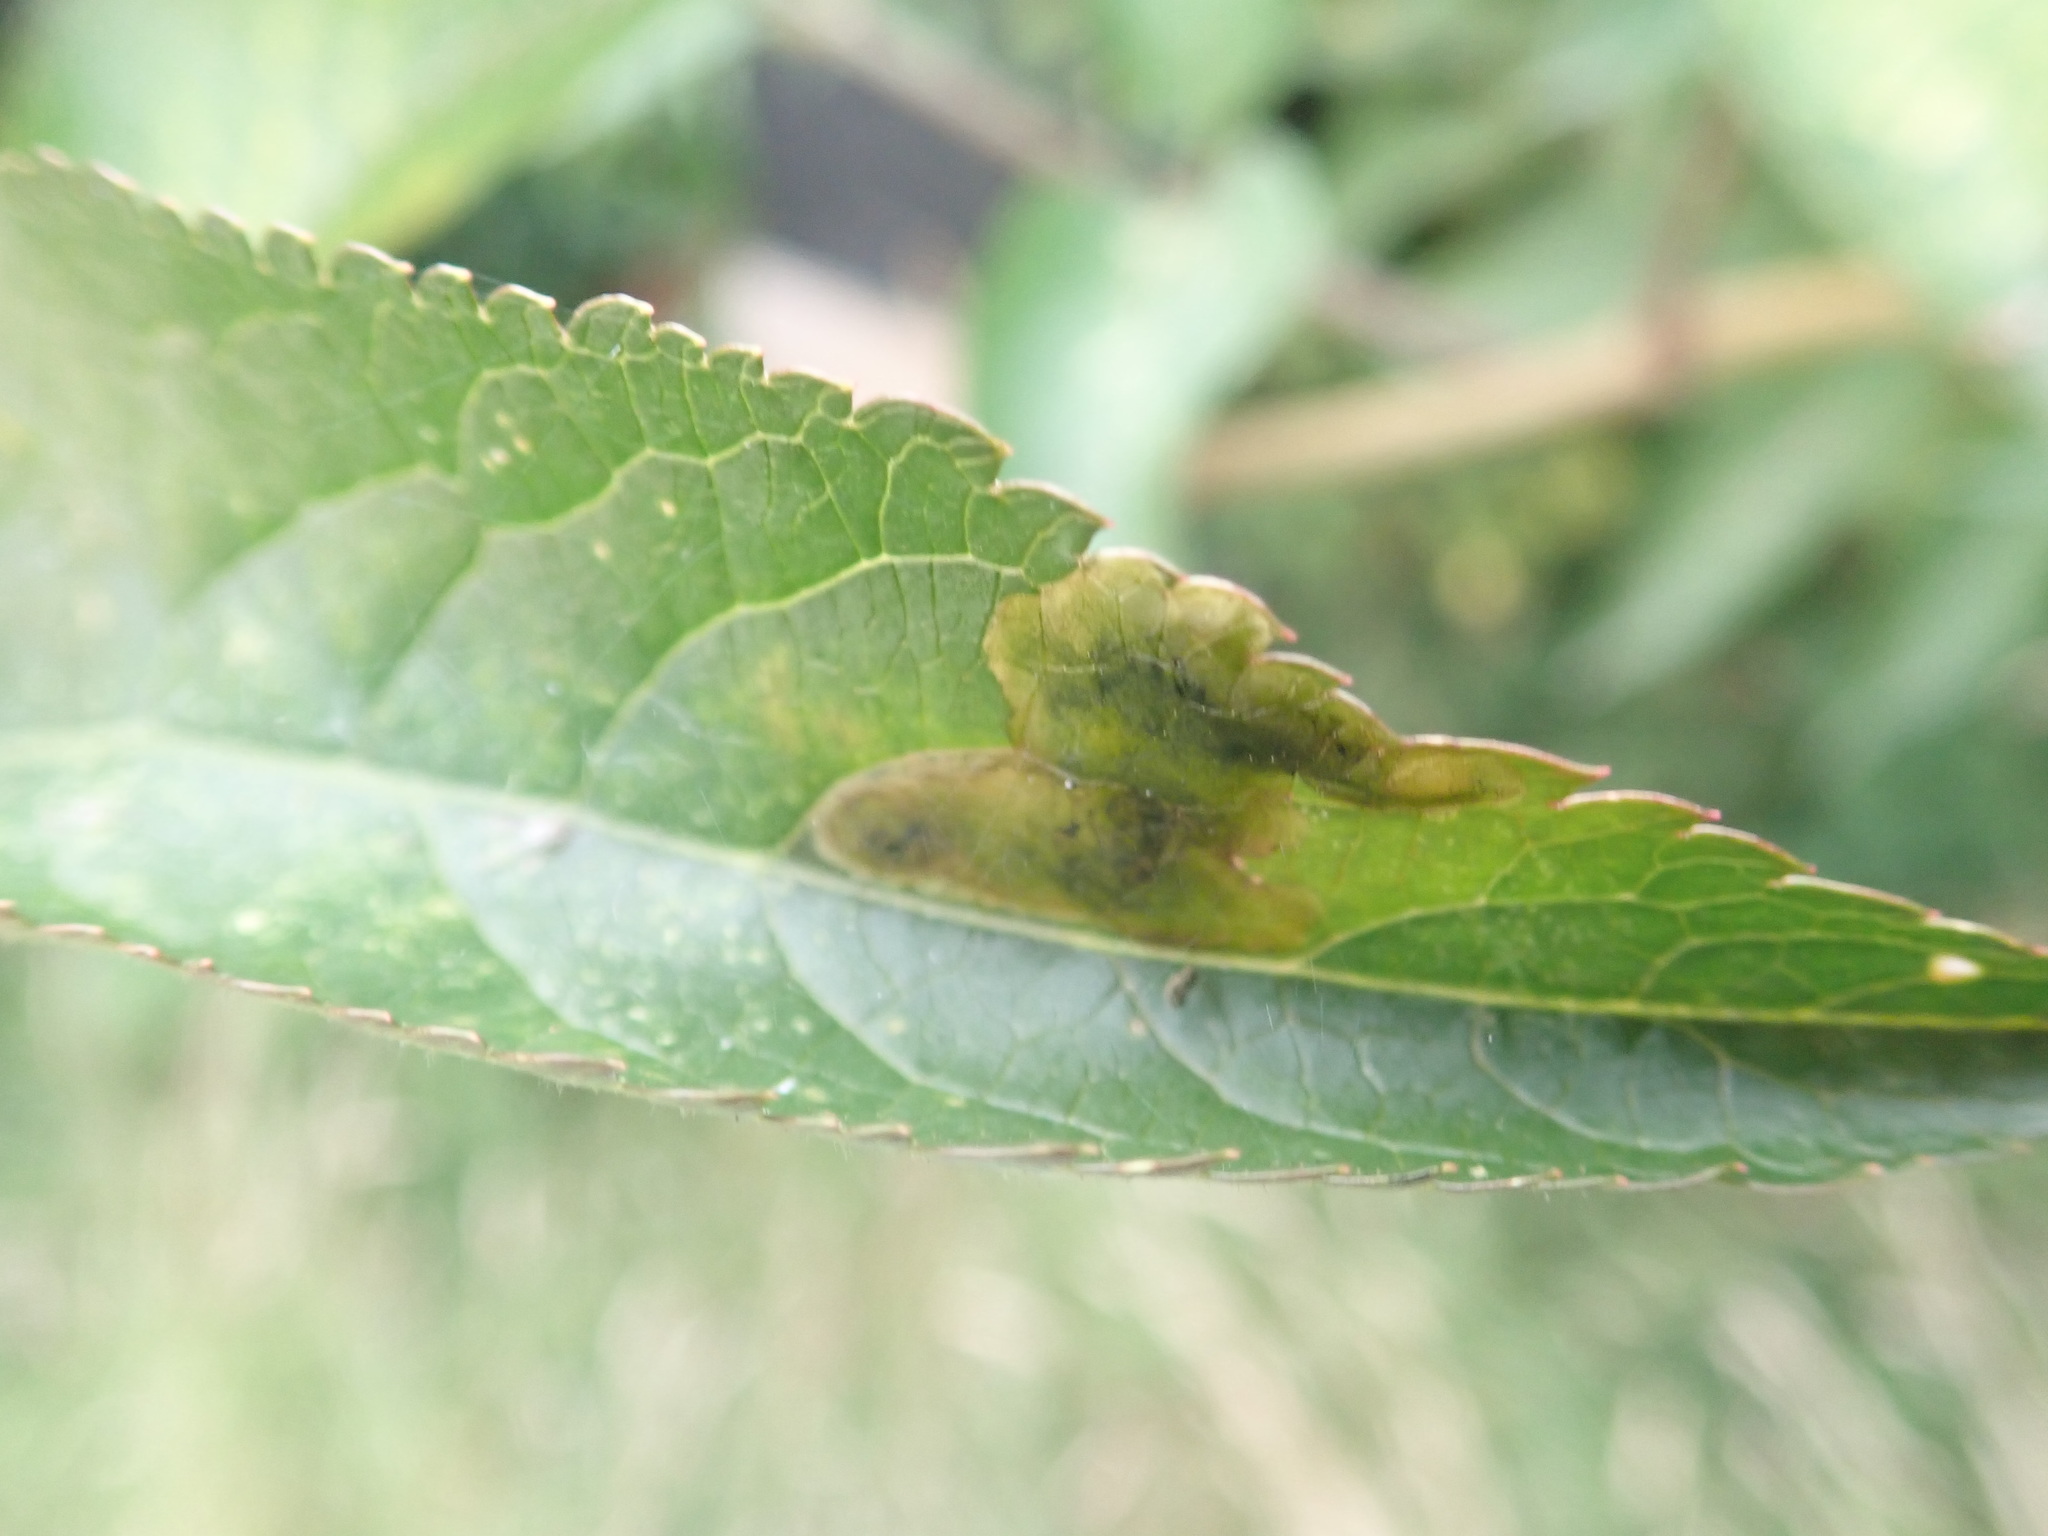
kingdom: Animalia
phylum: Arthropoda
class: Insecta
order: Diptera
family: Agromyzidae
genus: Liriomyza
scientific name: Liriomyza amoena
